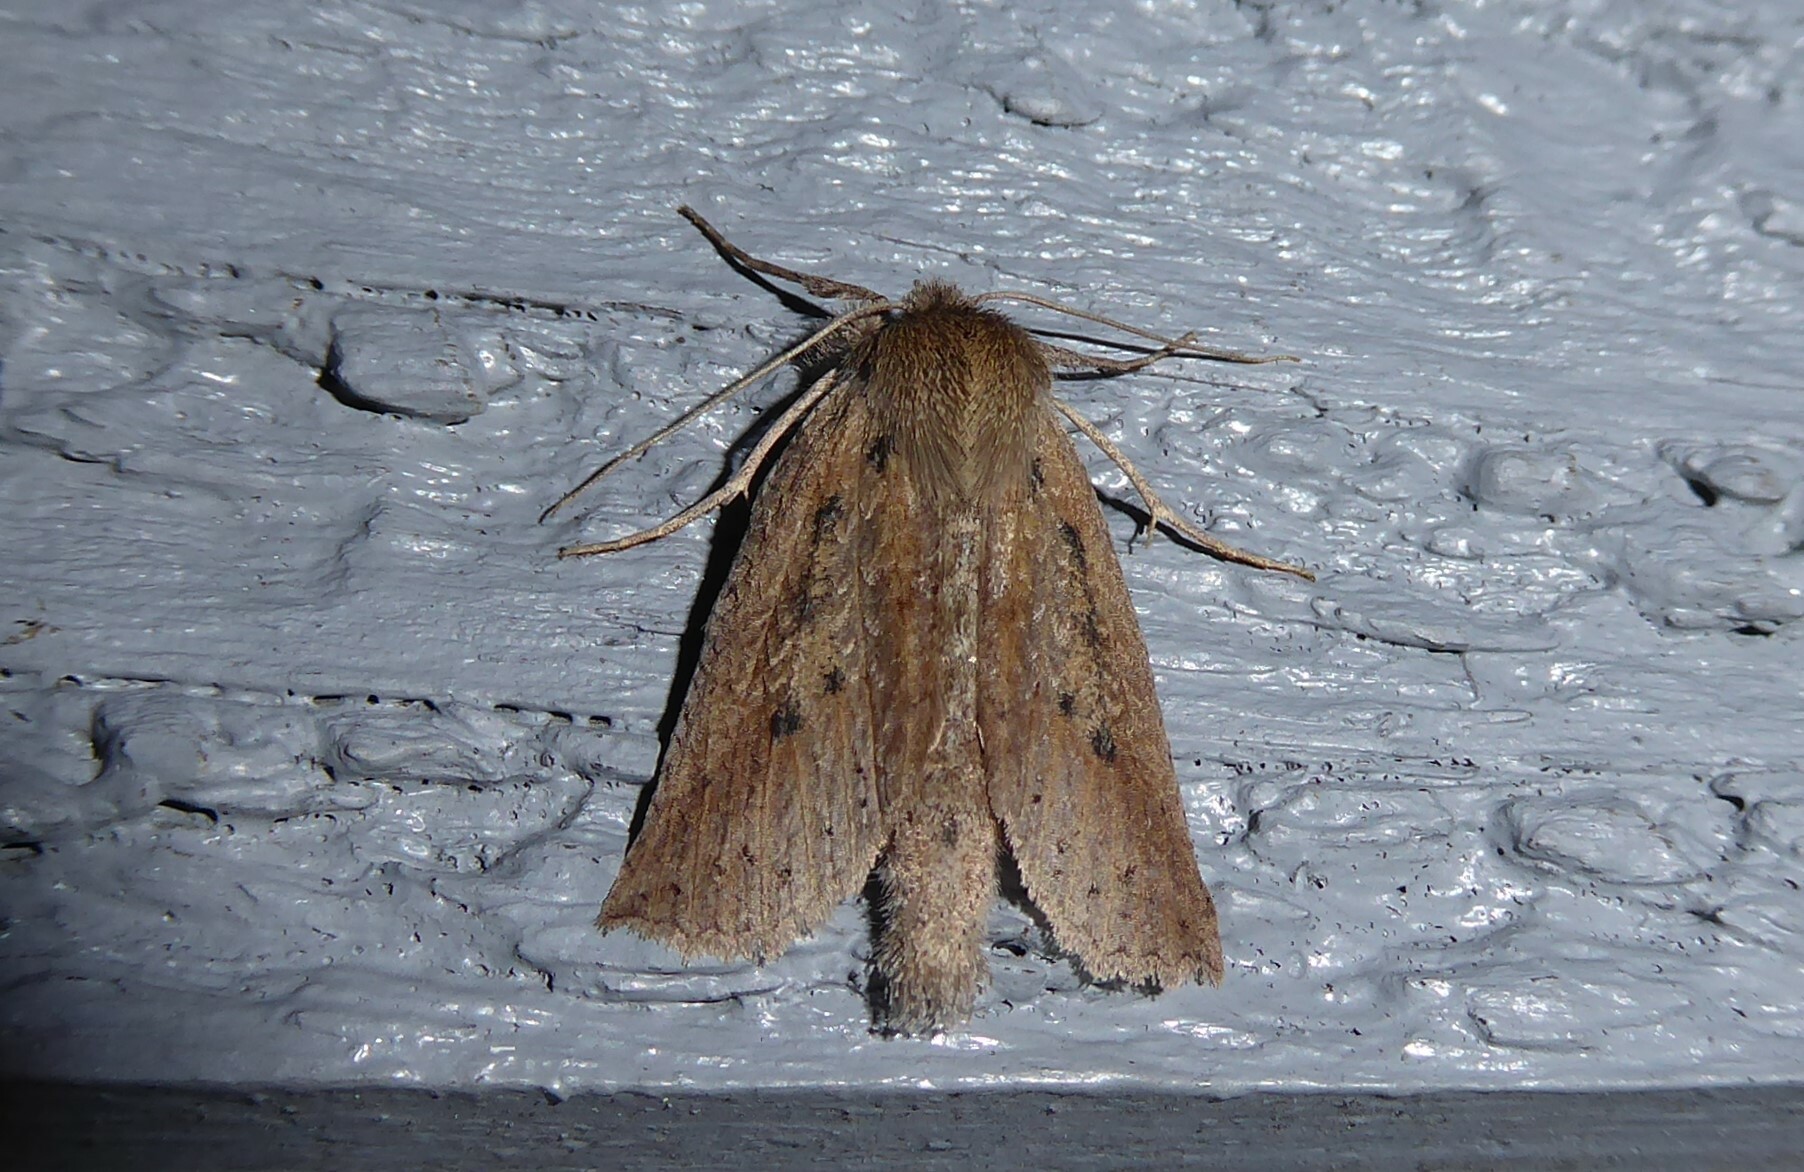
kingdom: Animalia
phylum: Arthropoda
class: Insecta
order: Lepidoptera
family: Geometridae
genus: Declana
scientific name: Declana leptomera
